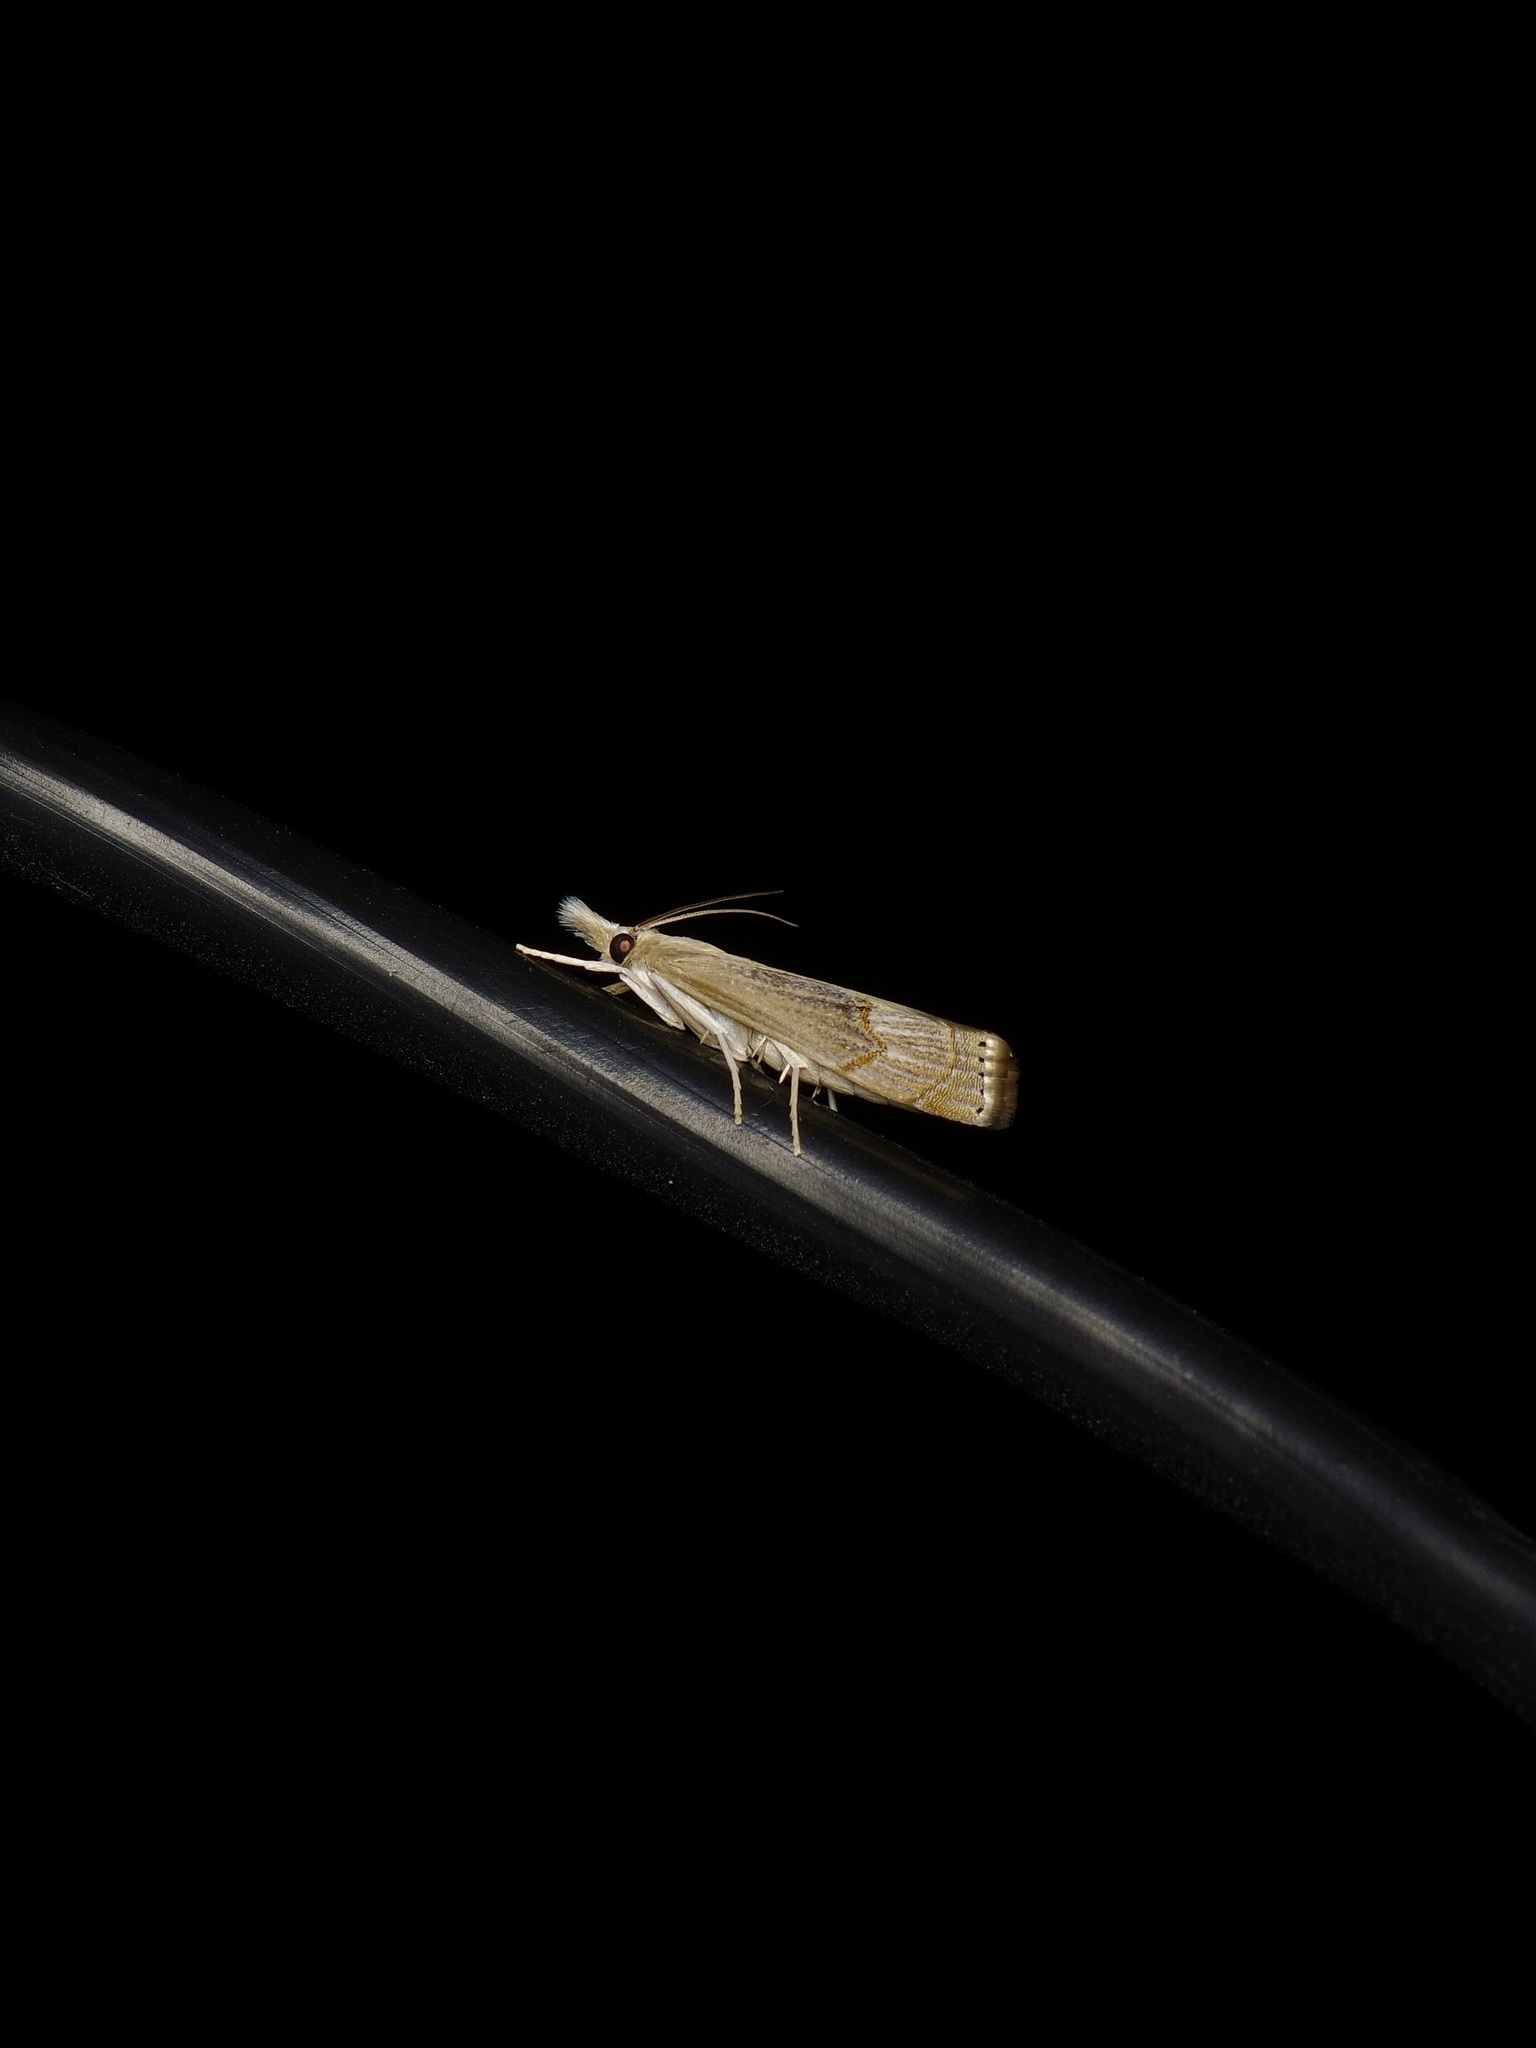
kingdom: Animalia
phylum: Arthropoda
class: Insecta
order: Lepidoptera
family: Crambidae
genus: Parapediasia
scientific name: Parapediasia teterellus
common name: Bluegrass webworm moth
